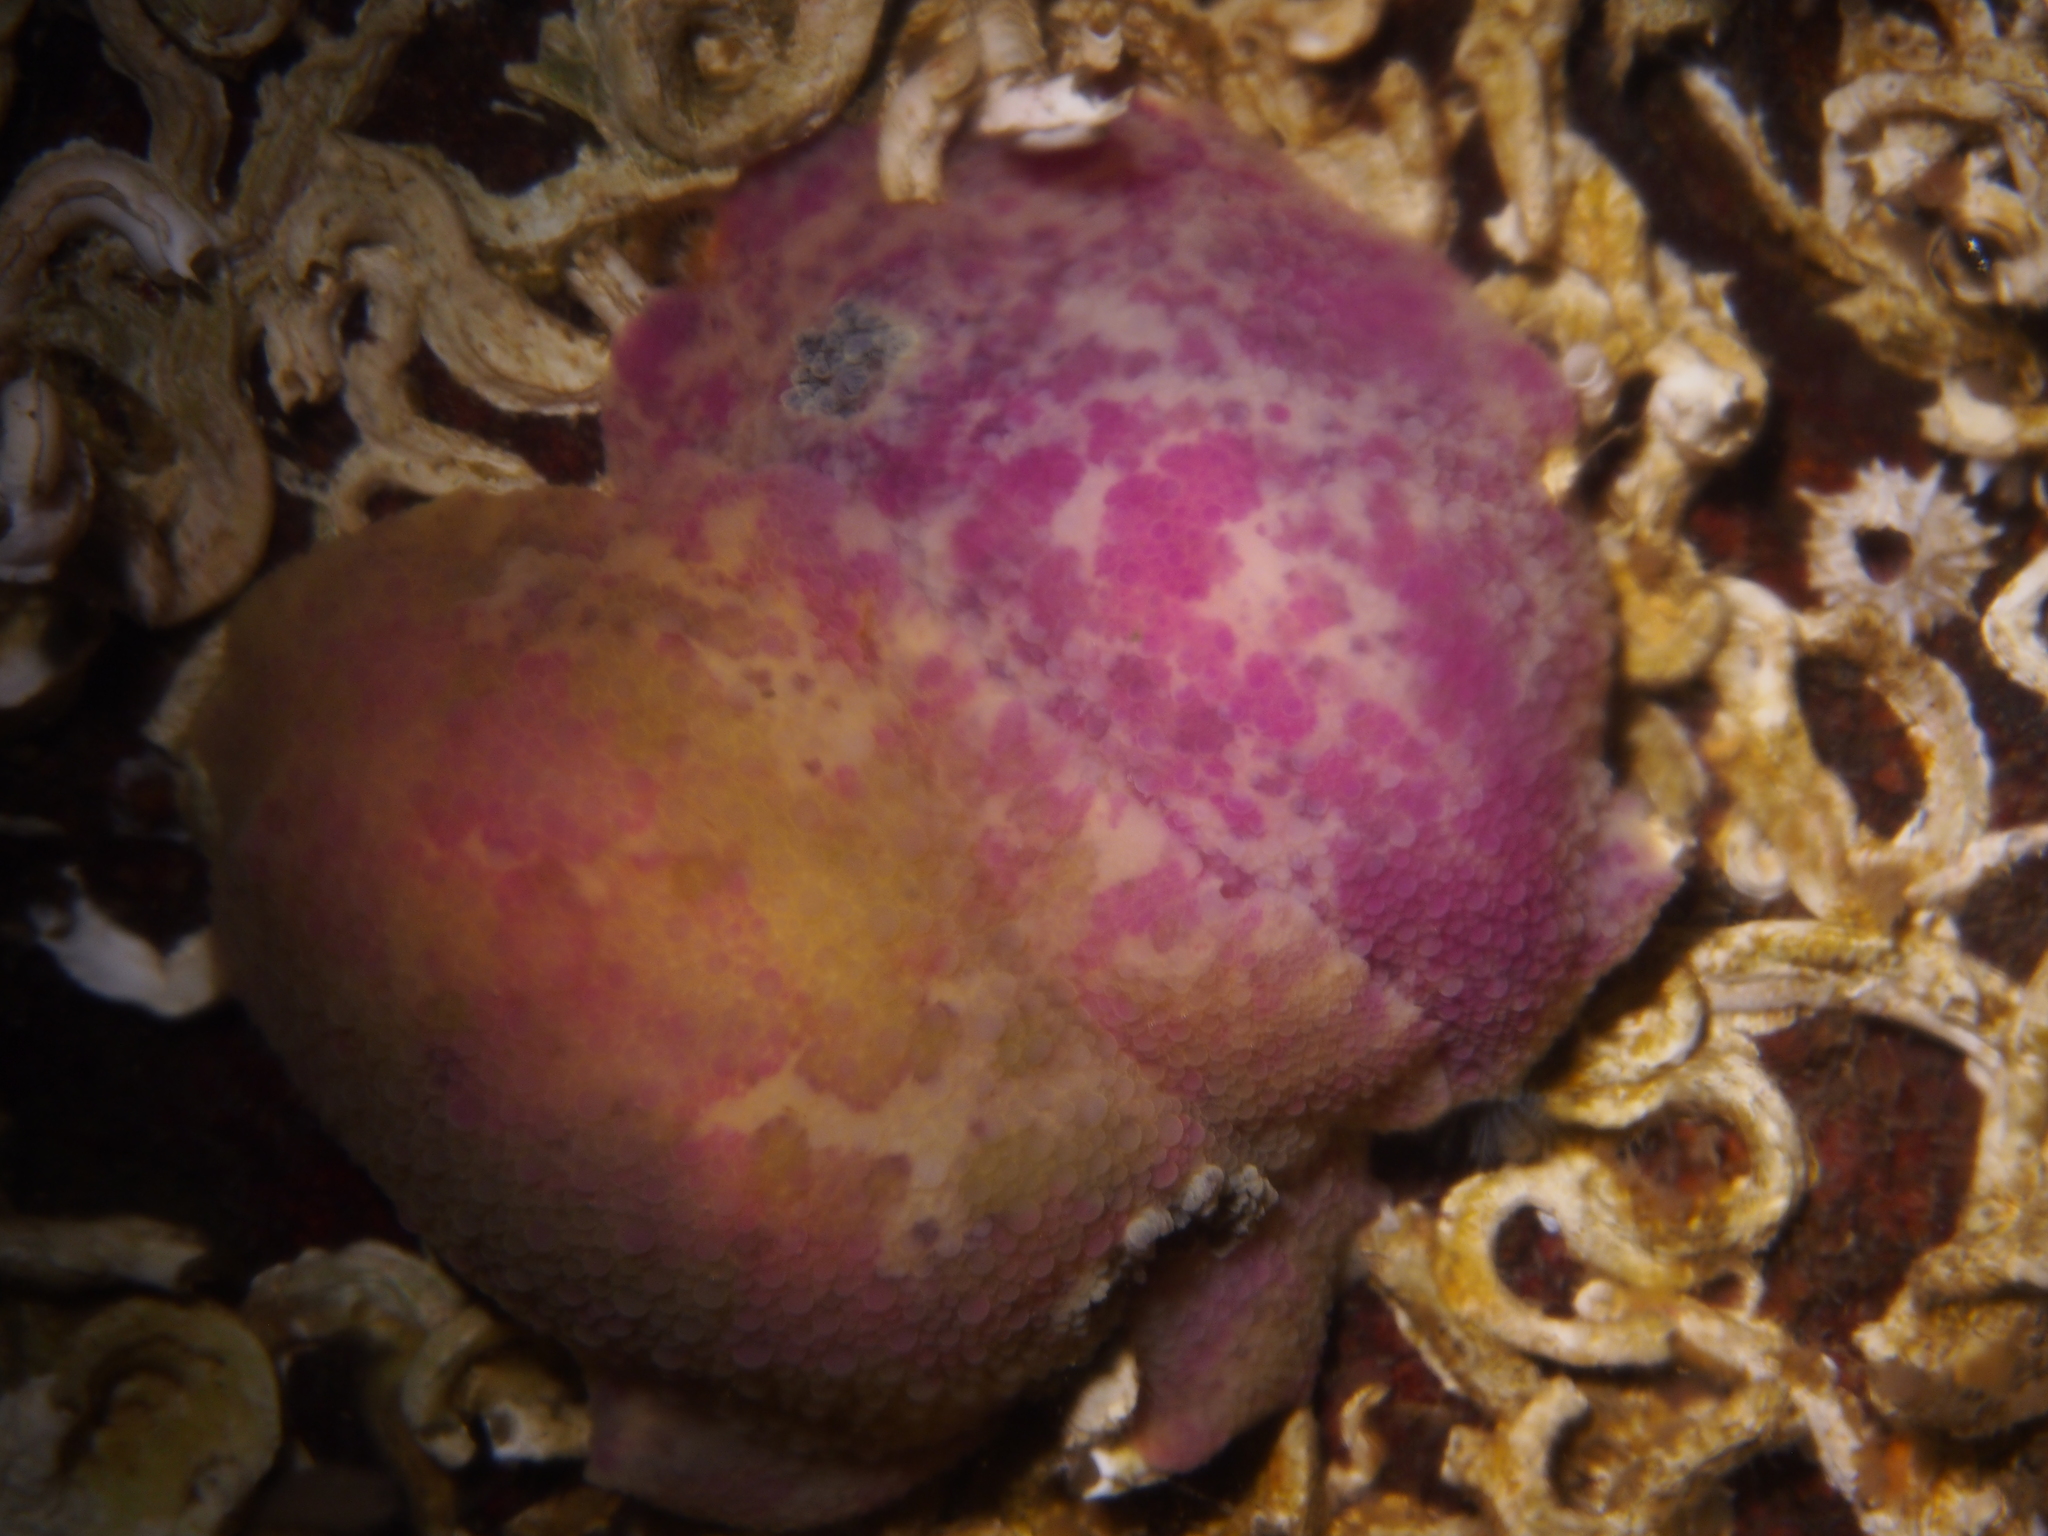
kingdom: Animalia
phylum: Mollusca
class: Gastropoda
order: Nudibranchia
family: Dorididae
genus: Doris
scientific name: Doris pseudoargus
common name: Sea lemon
